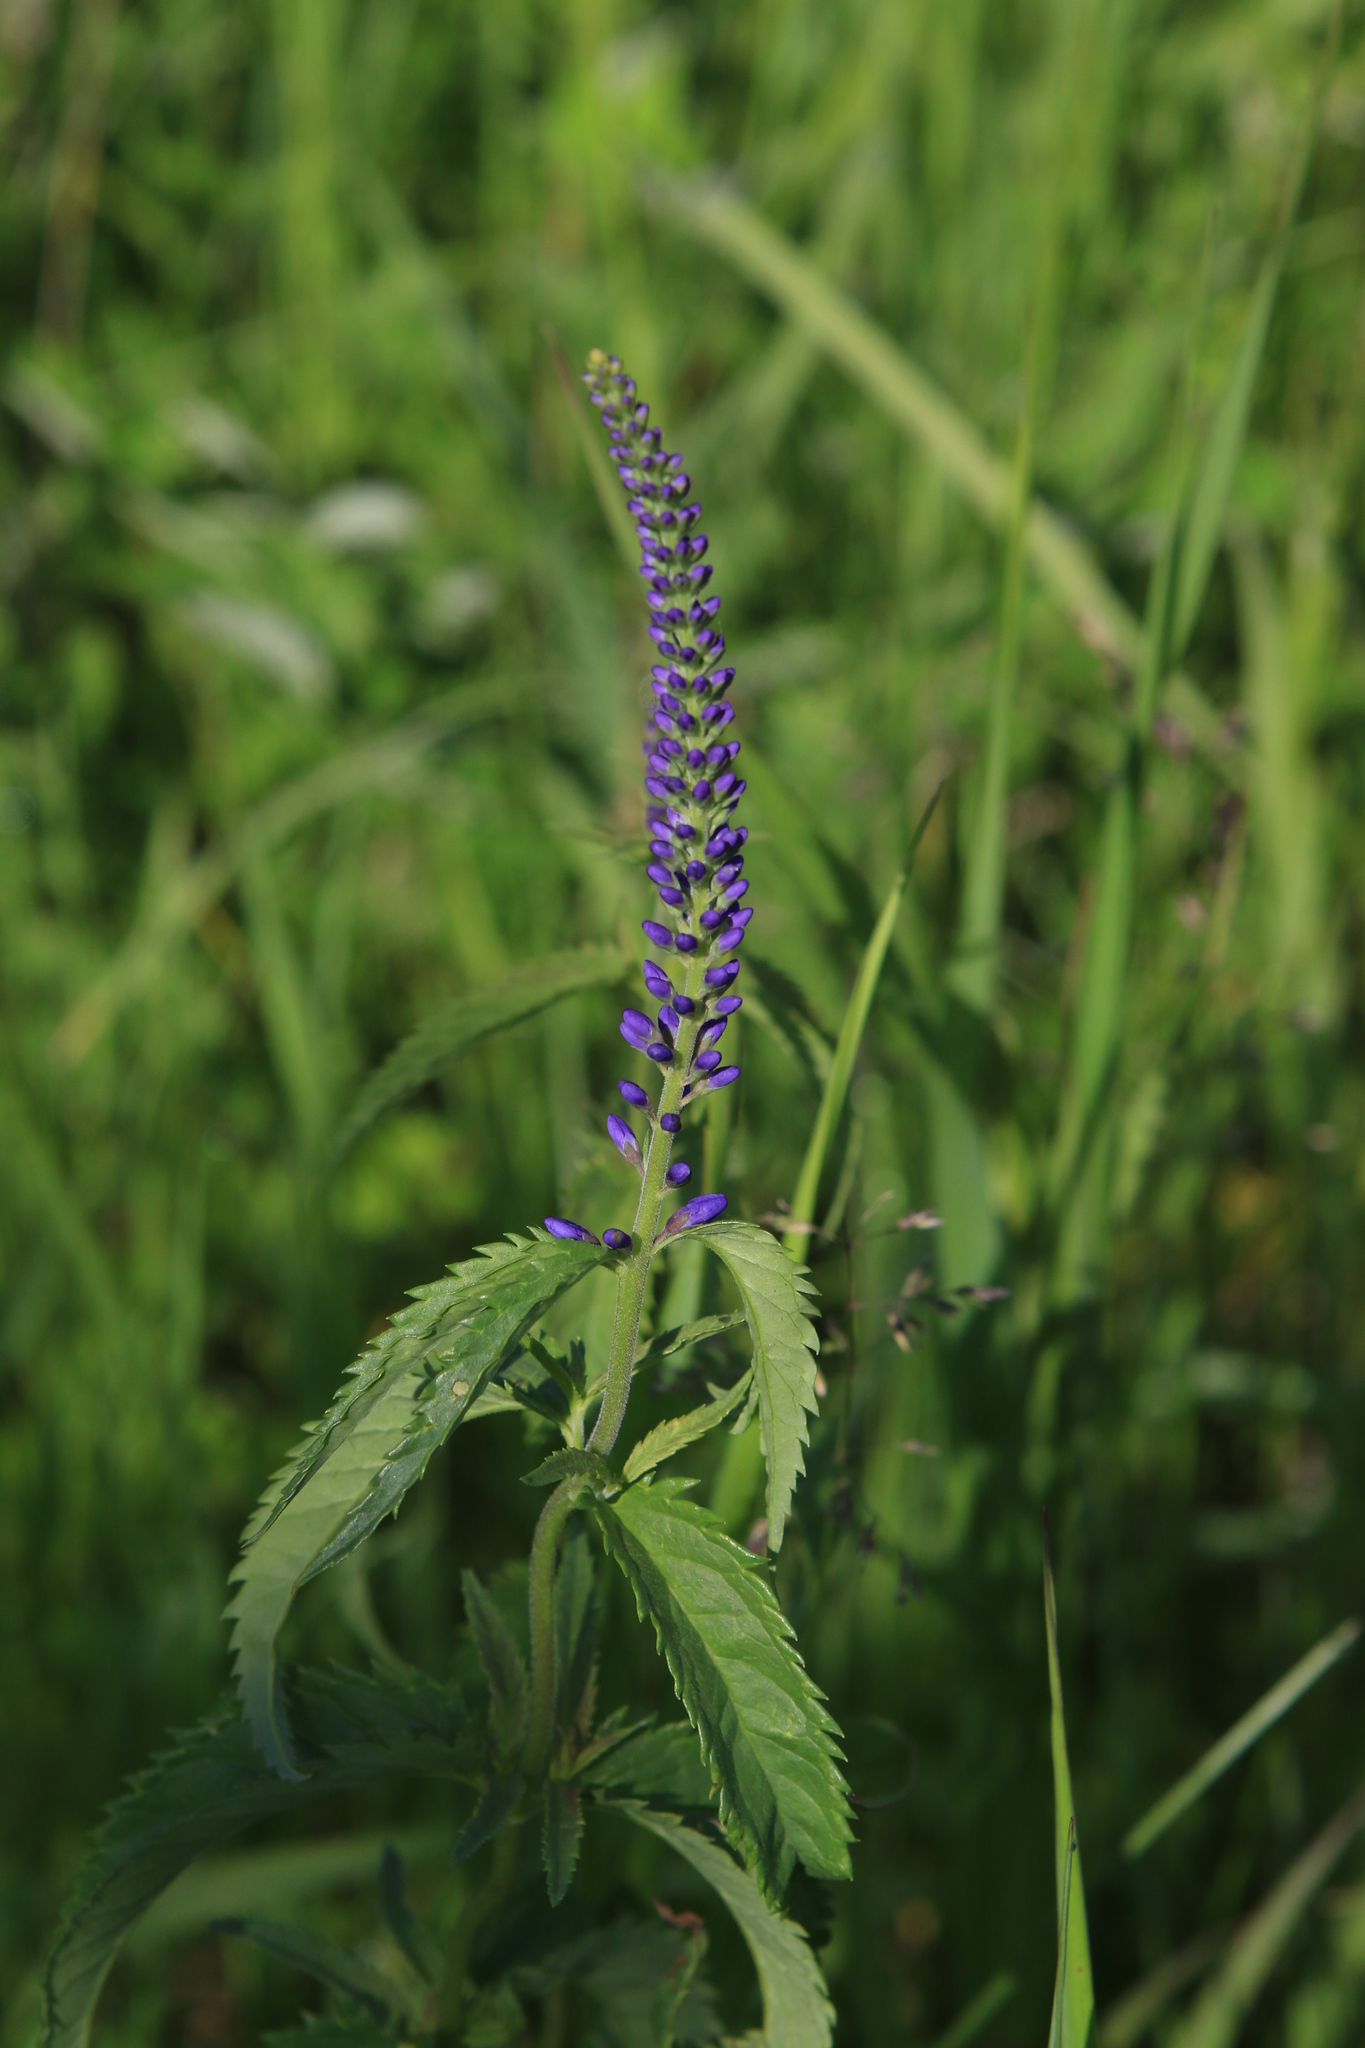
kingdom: Plantae
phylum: Tracheophyta
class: Magnoliopsida
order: Lamiales
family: Plantaginaceae
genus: Veronica
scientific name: Veronica longifolia
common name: Garden speedwell
